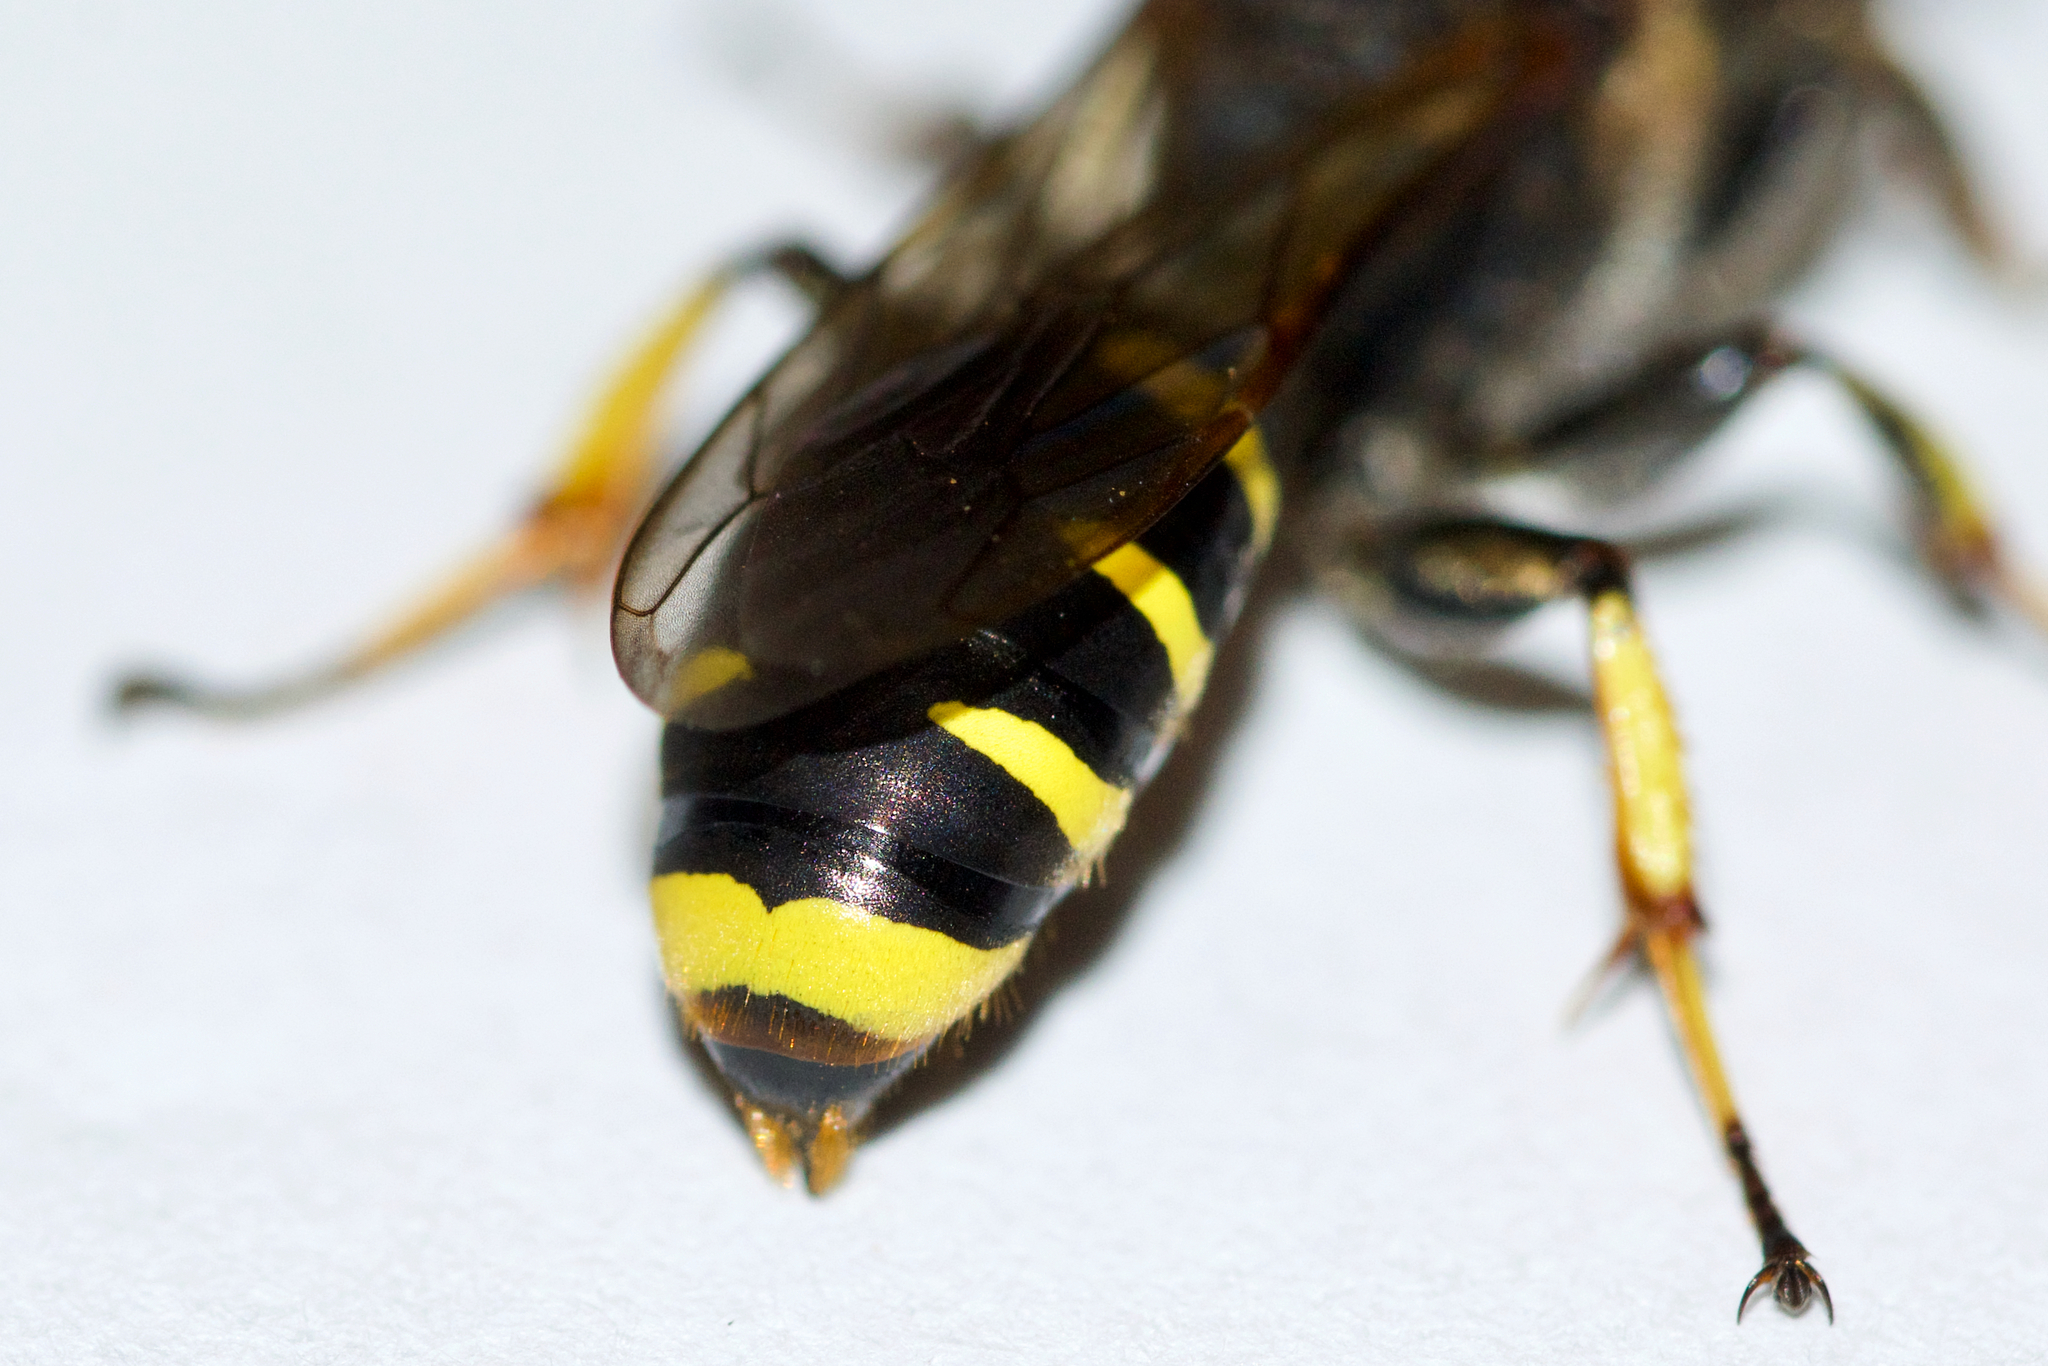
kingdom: Animalia
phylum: Arthropoda
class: Insecta
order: Hymenoptera
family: Crabronidae
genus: Ectemnius
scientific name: Ectemnius cephalotes
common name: Sphecid wasp
